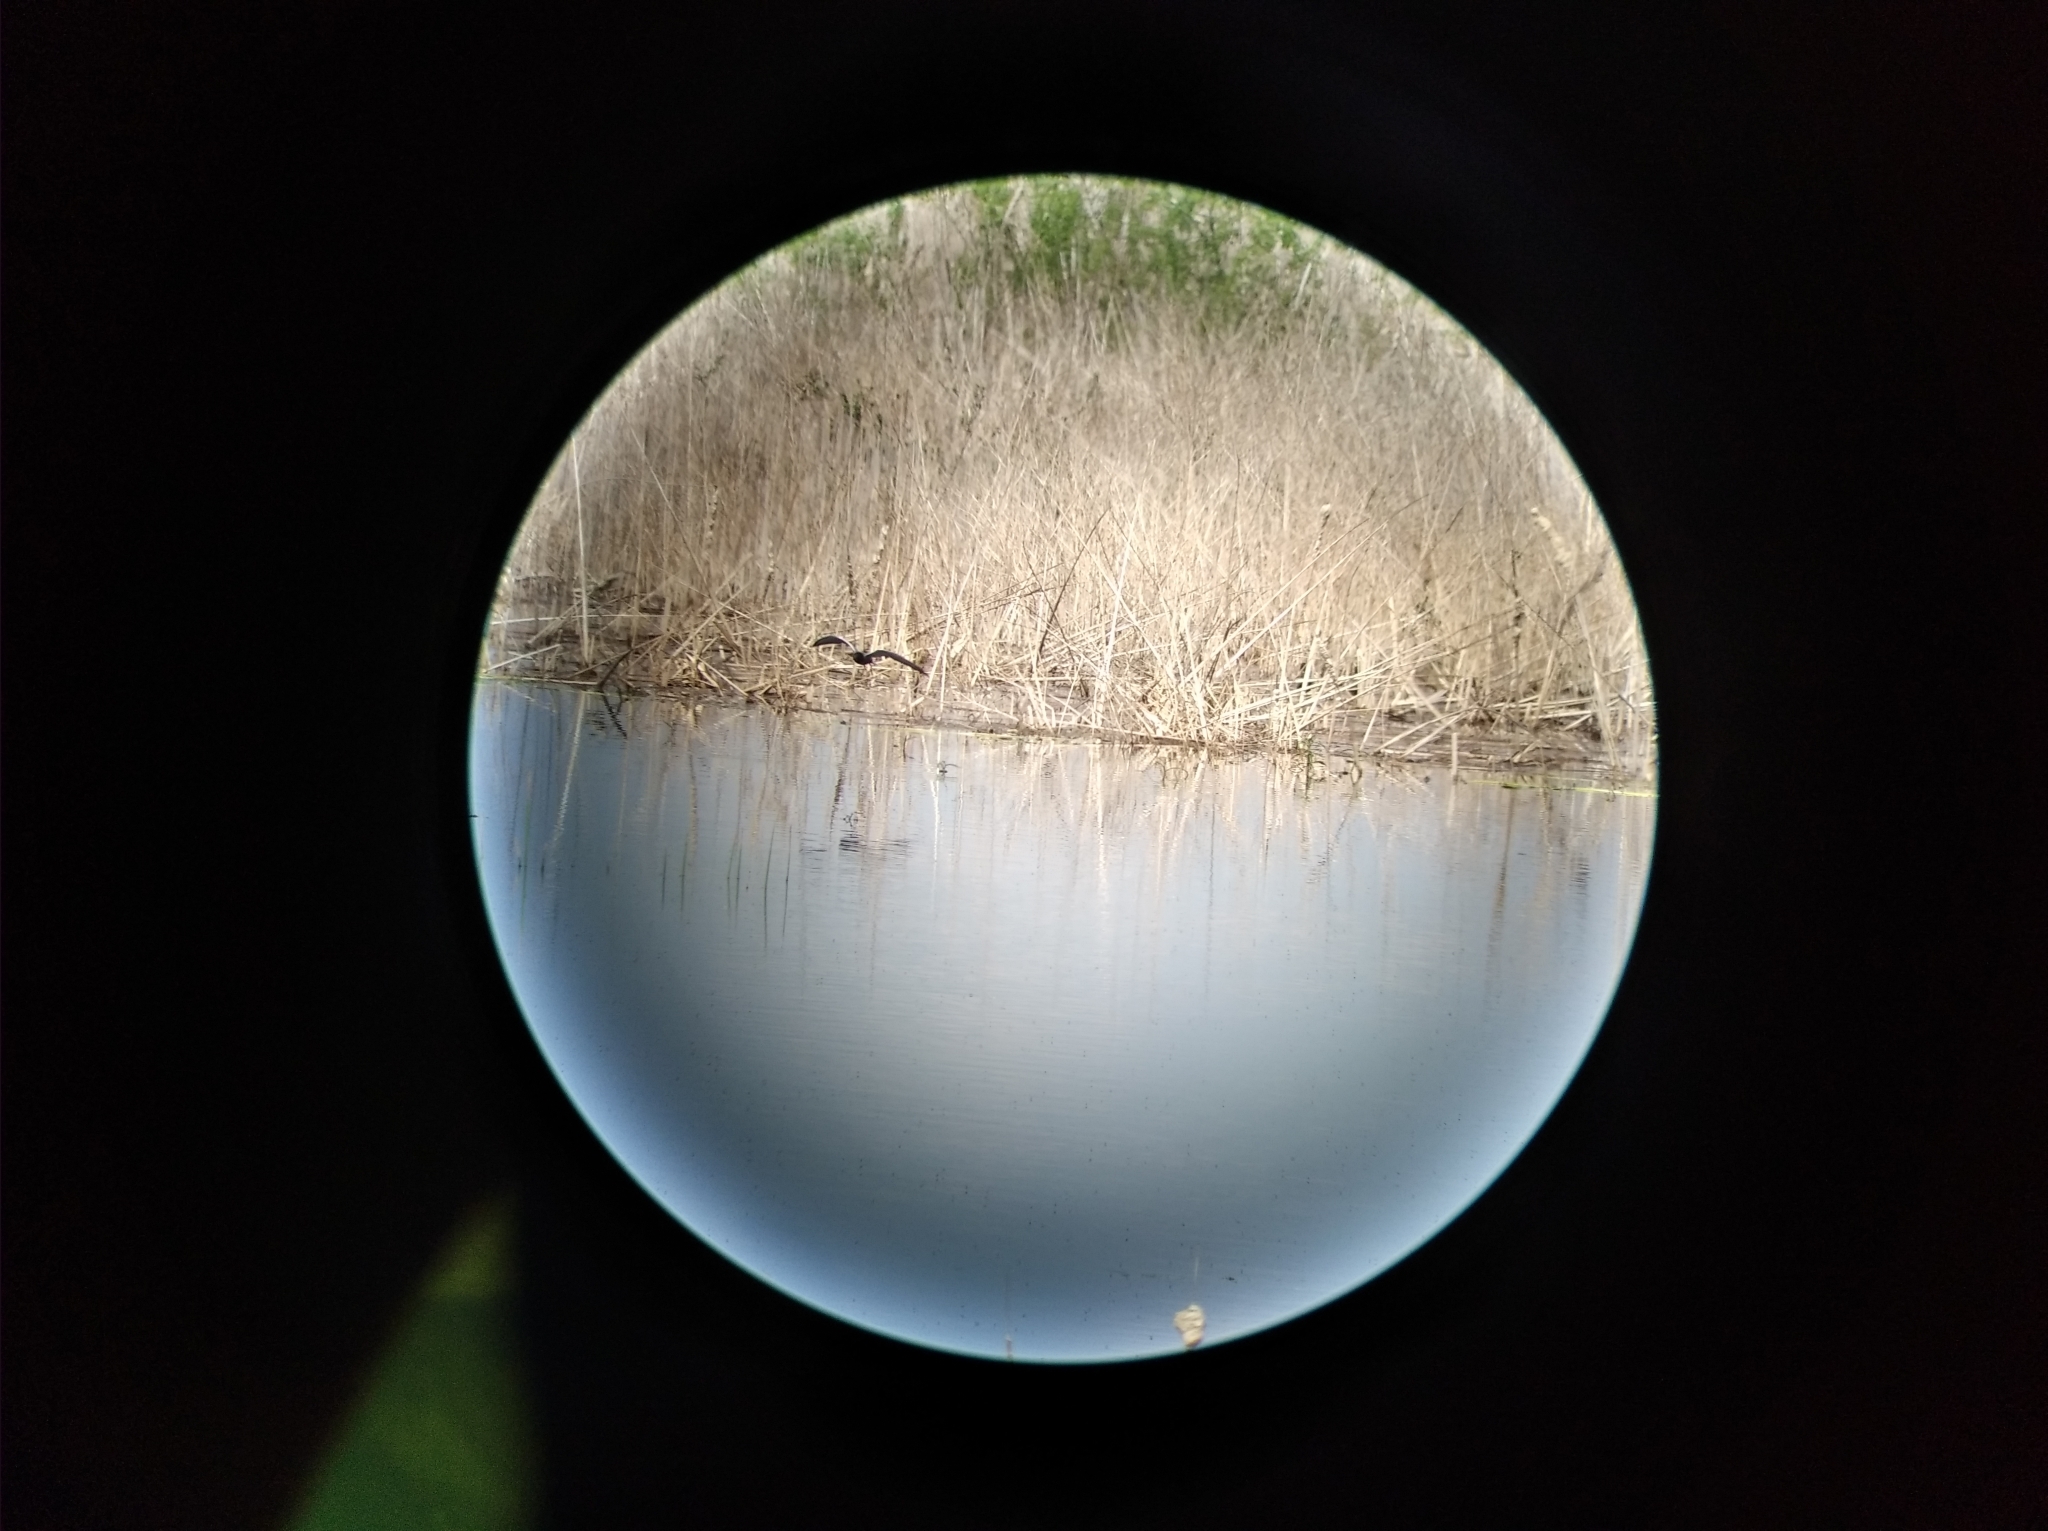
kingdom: Animalia
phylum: Chordata
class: Aves
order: Charadriiformes
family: Laridae
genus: Chlidonias
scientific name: Chlidonias niger
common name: Black tern
